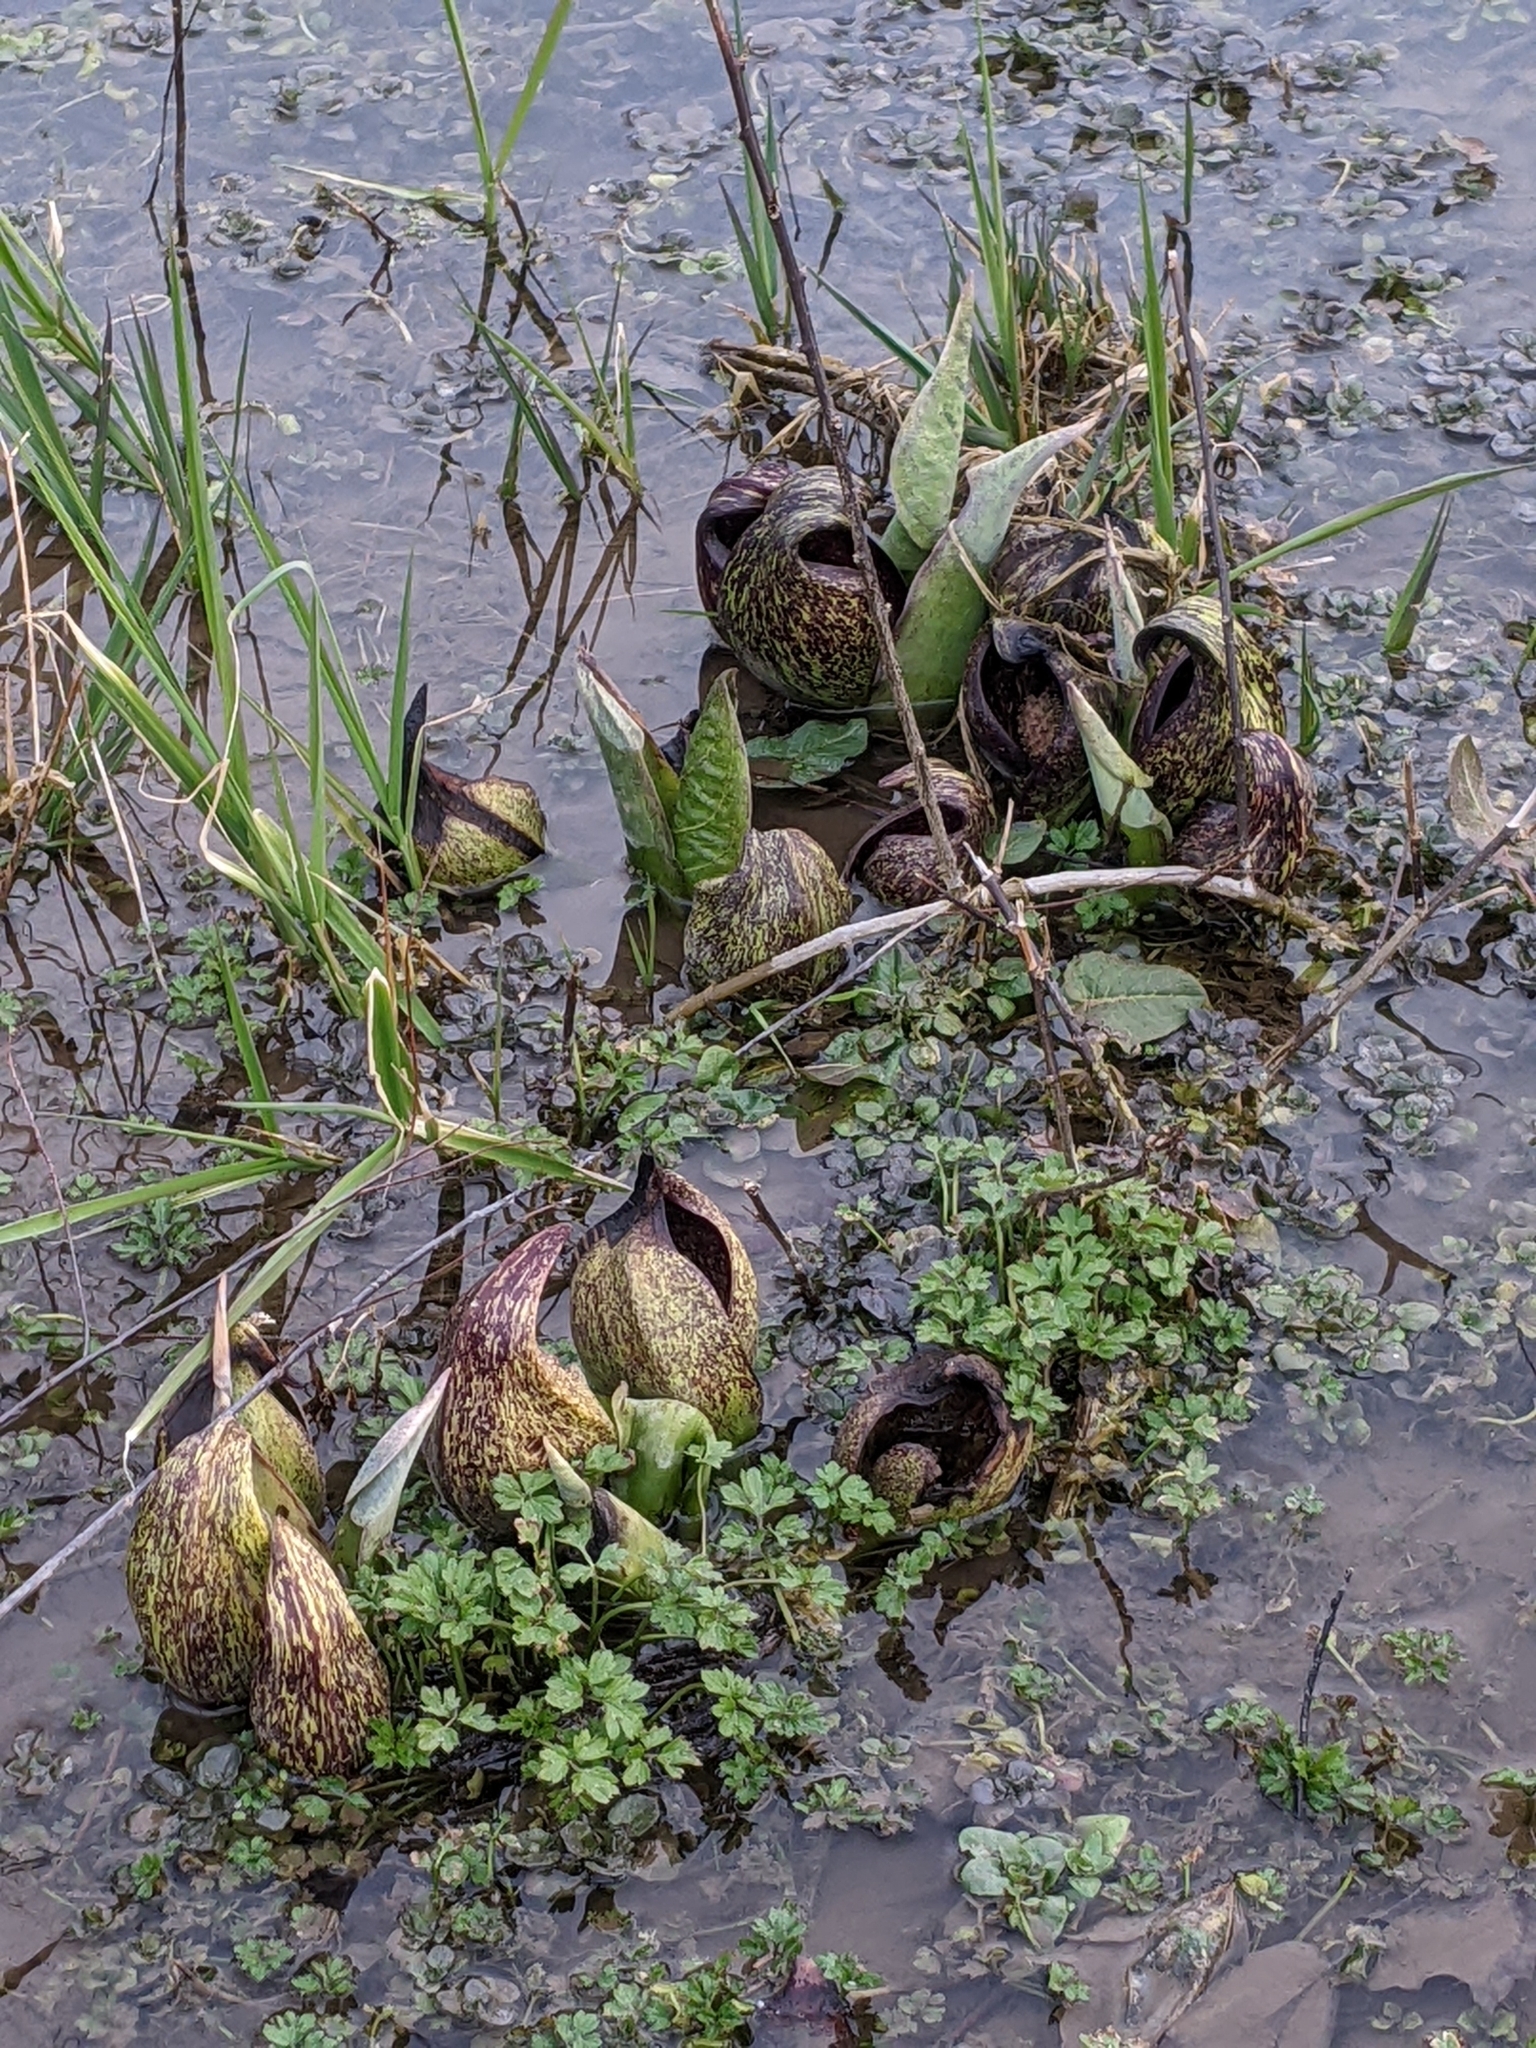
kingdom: Plantae
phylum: Tracheophyta
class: Liliopsida
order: Alismatales
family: Araceae
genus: Symplocarpus
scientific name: Symplocarpus foetidus
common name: Eastern skunk cabbage
